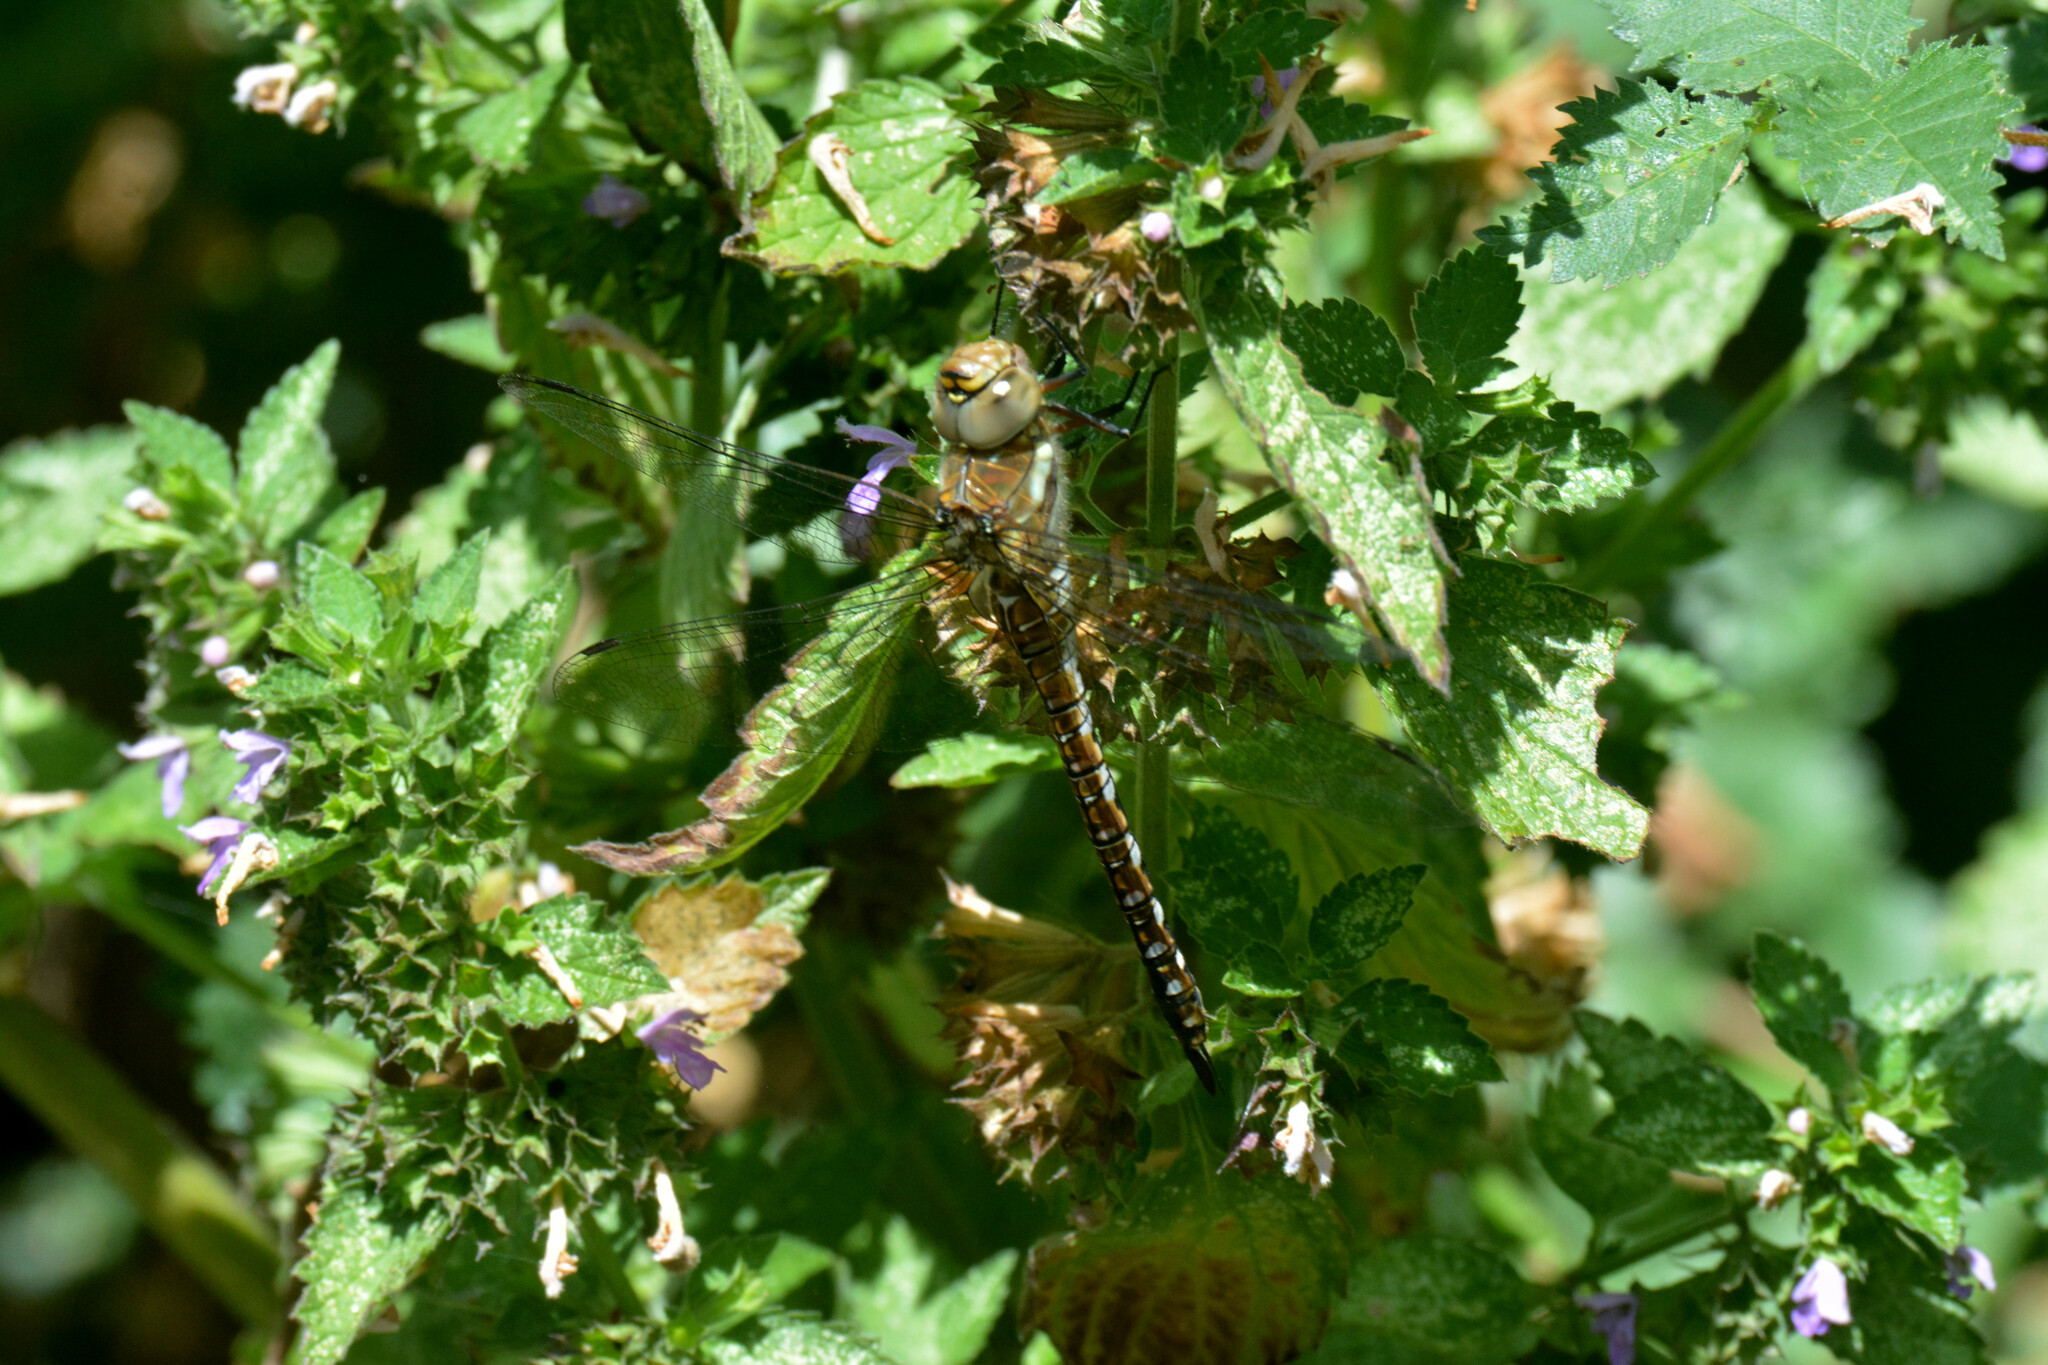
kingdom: Animalia
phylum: Arthropoda
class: Insecta
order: Odonata
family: Aeshnidae
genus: Aeshna
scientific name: Aeshna mixta
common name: Migrant hawker
